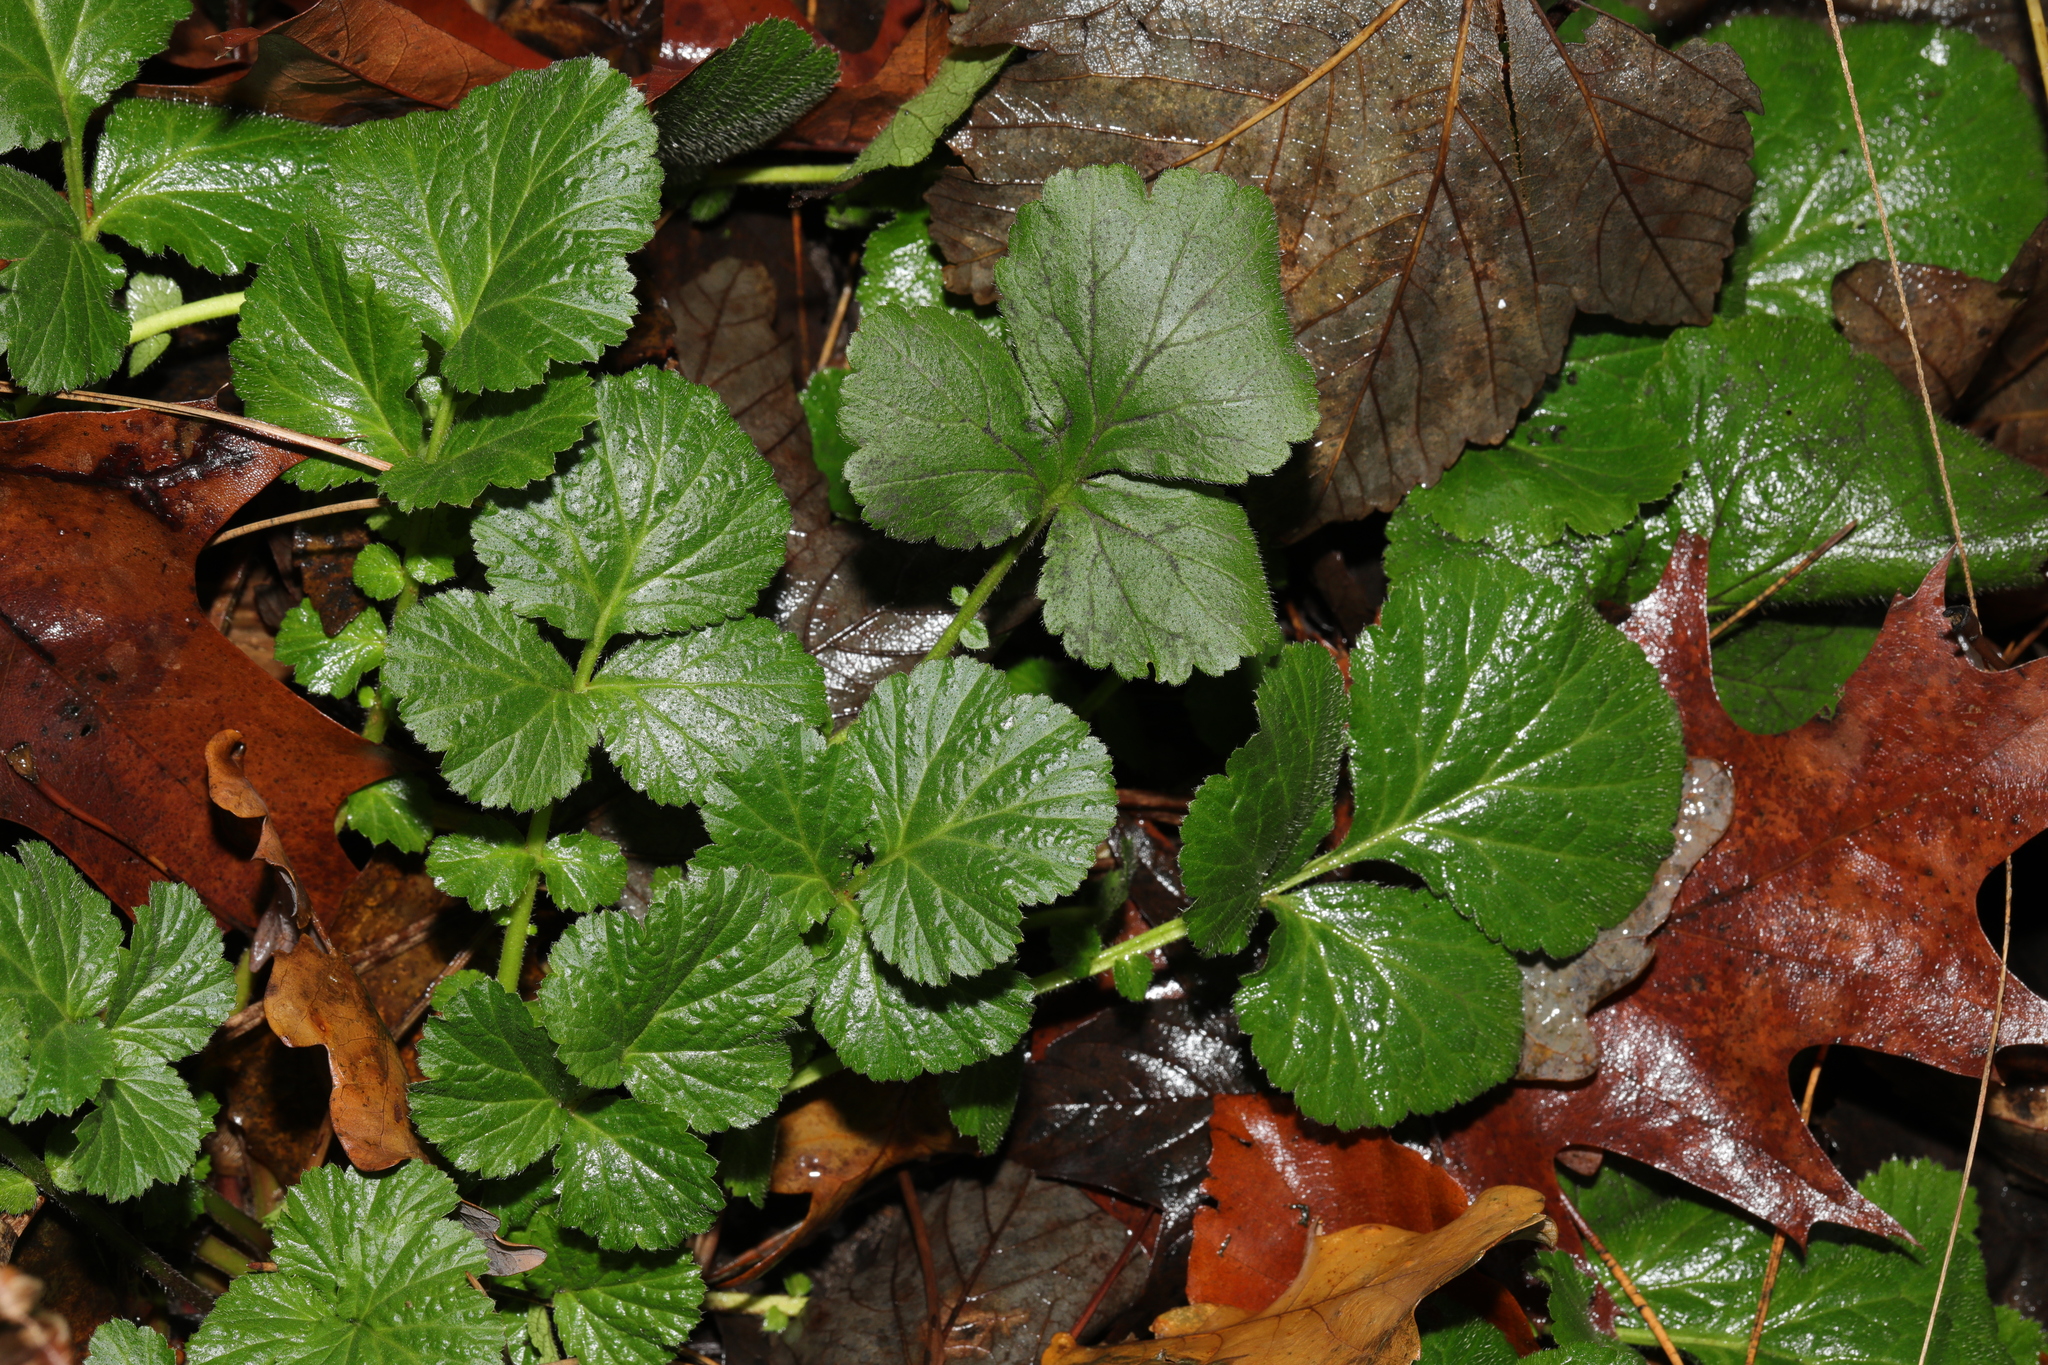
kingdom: Plantae
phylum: Tracheophyta
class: Magnoliopsida
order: Rosales
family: Rosaceae
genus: Geum
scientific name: Geum urbanum
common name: Wood avens
